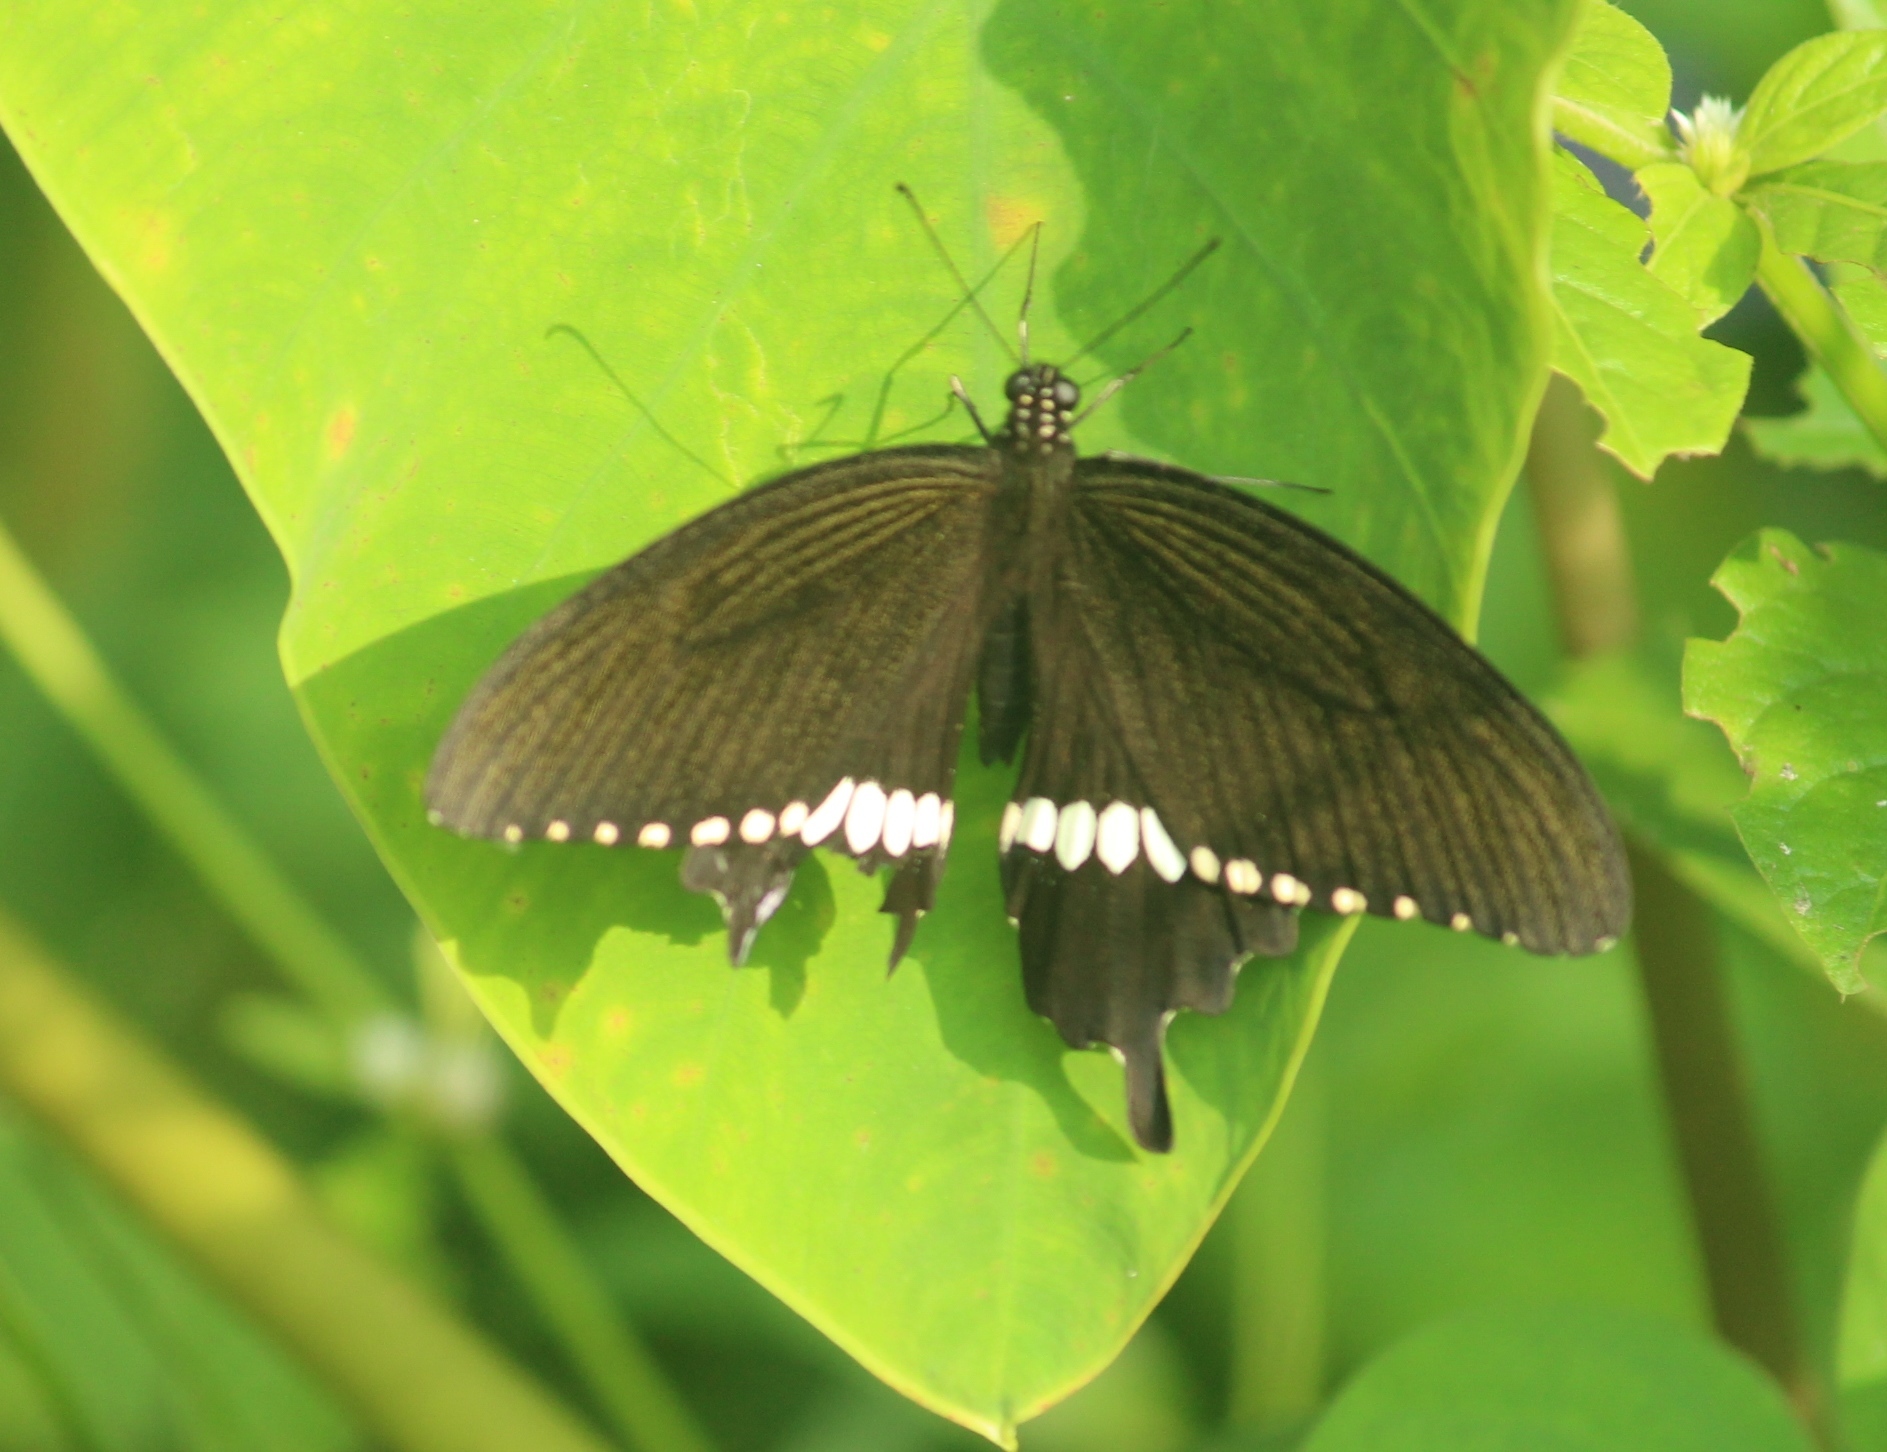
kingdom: Animalia
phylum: Arthropoda
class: Insecta
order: Lepidoptera
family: Papilionidae
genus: Papilio
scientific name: Papilio polytes
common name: Common mormon
